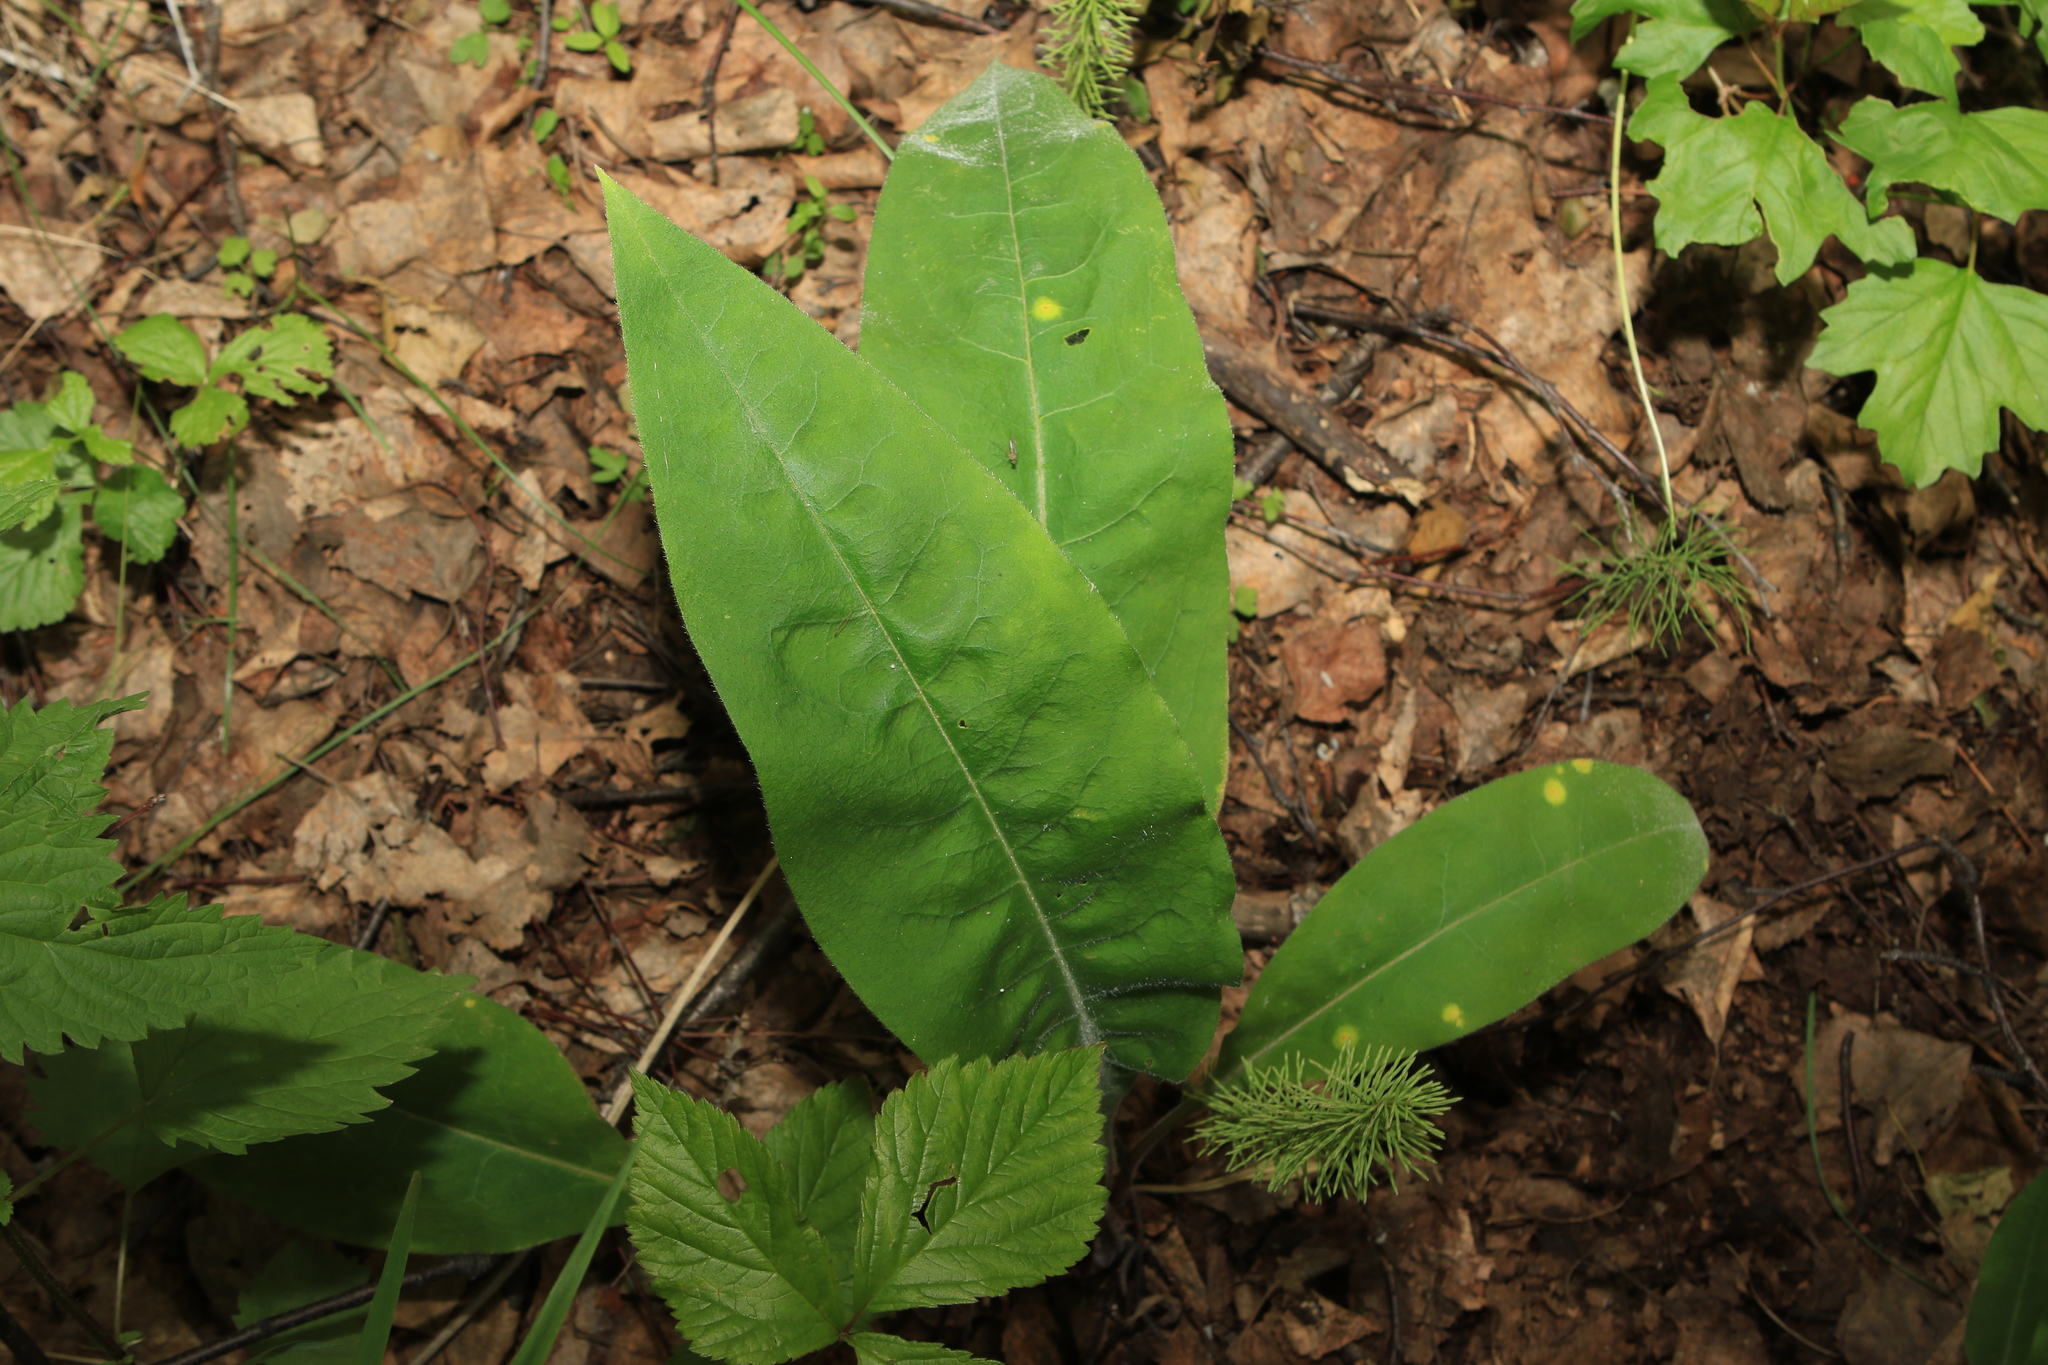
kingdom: Plantae
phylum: Tracheophyta
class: Magnoliopsida
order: Boraginales
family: Boraginaceae
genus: Pulmonaria
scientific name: Pulmonaria mollis
